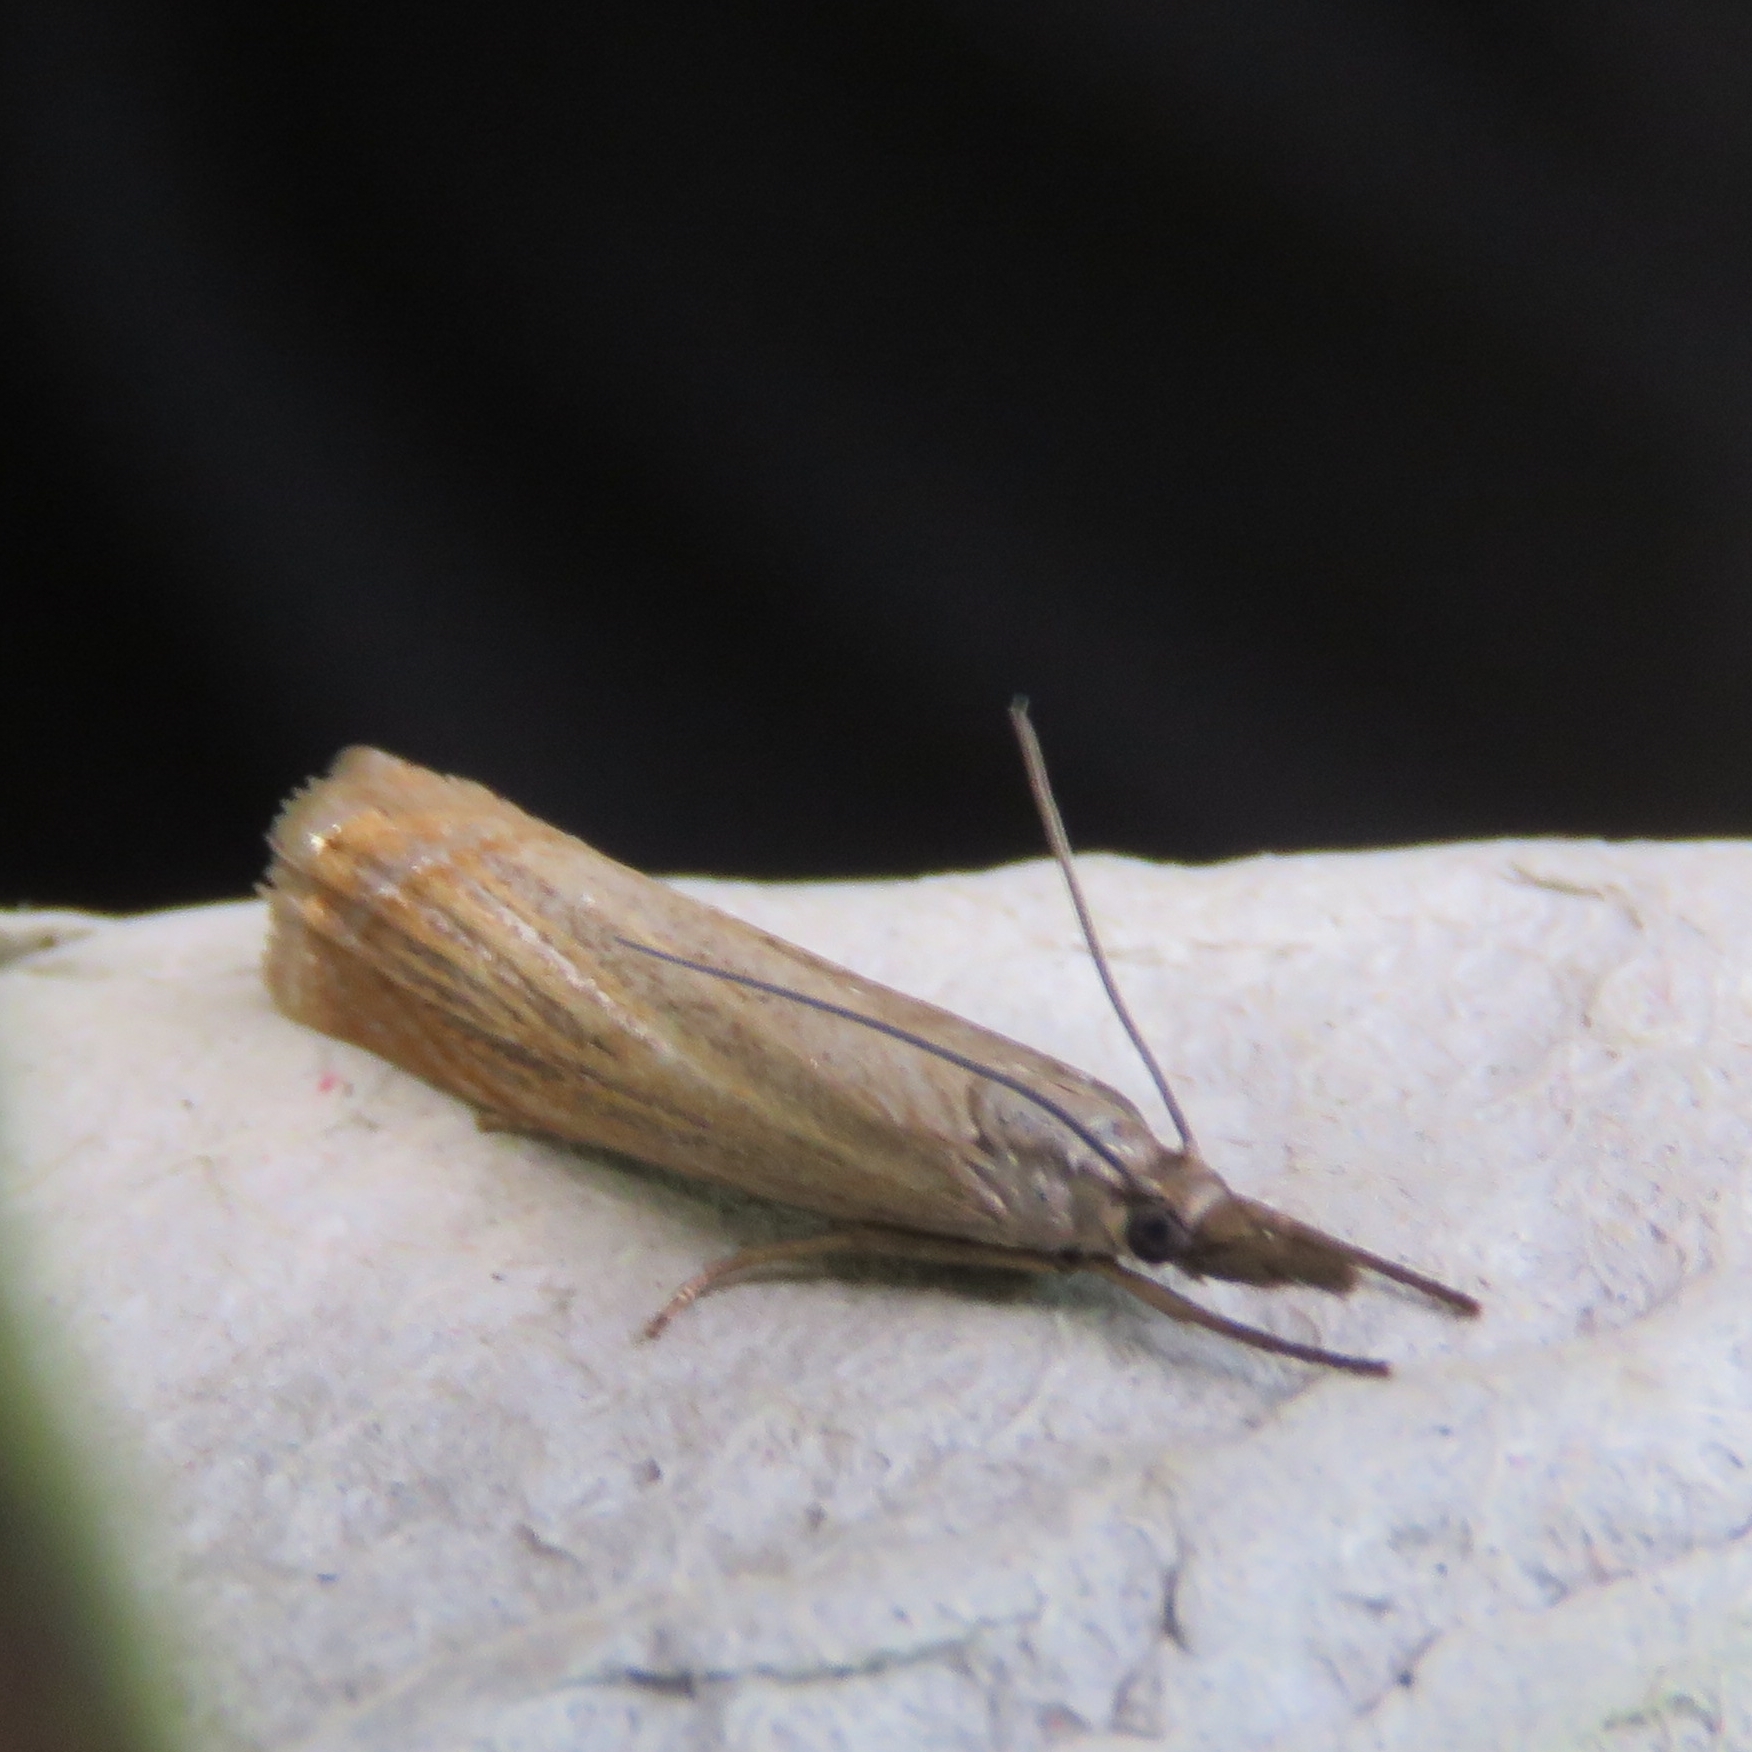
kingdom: Animalia
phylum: Arthropoda
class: Insecta
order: Lepidoptera
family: Crambidae
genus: Chrysoteuchia
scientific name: Chrysoteuchia culmella
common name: Garden grass-veneer
